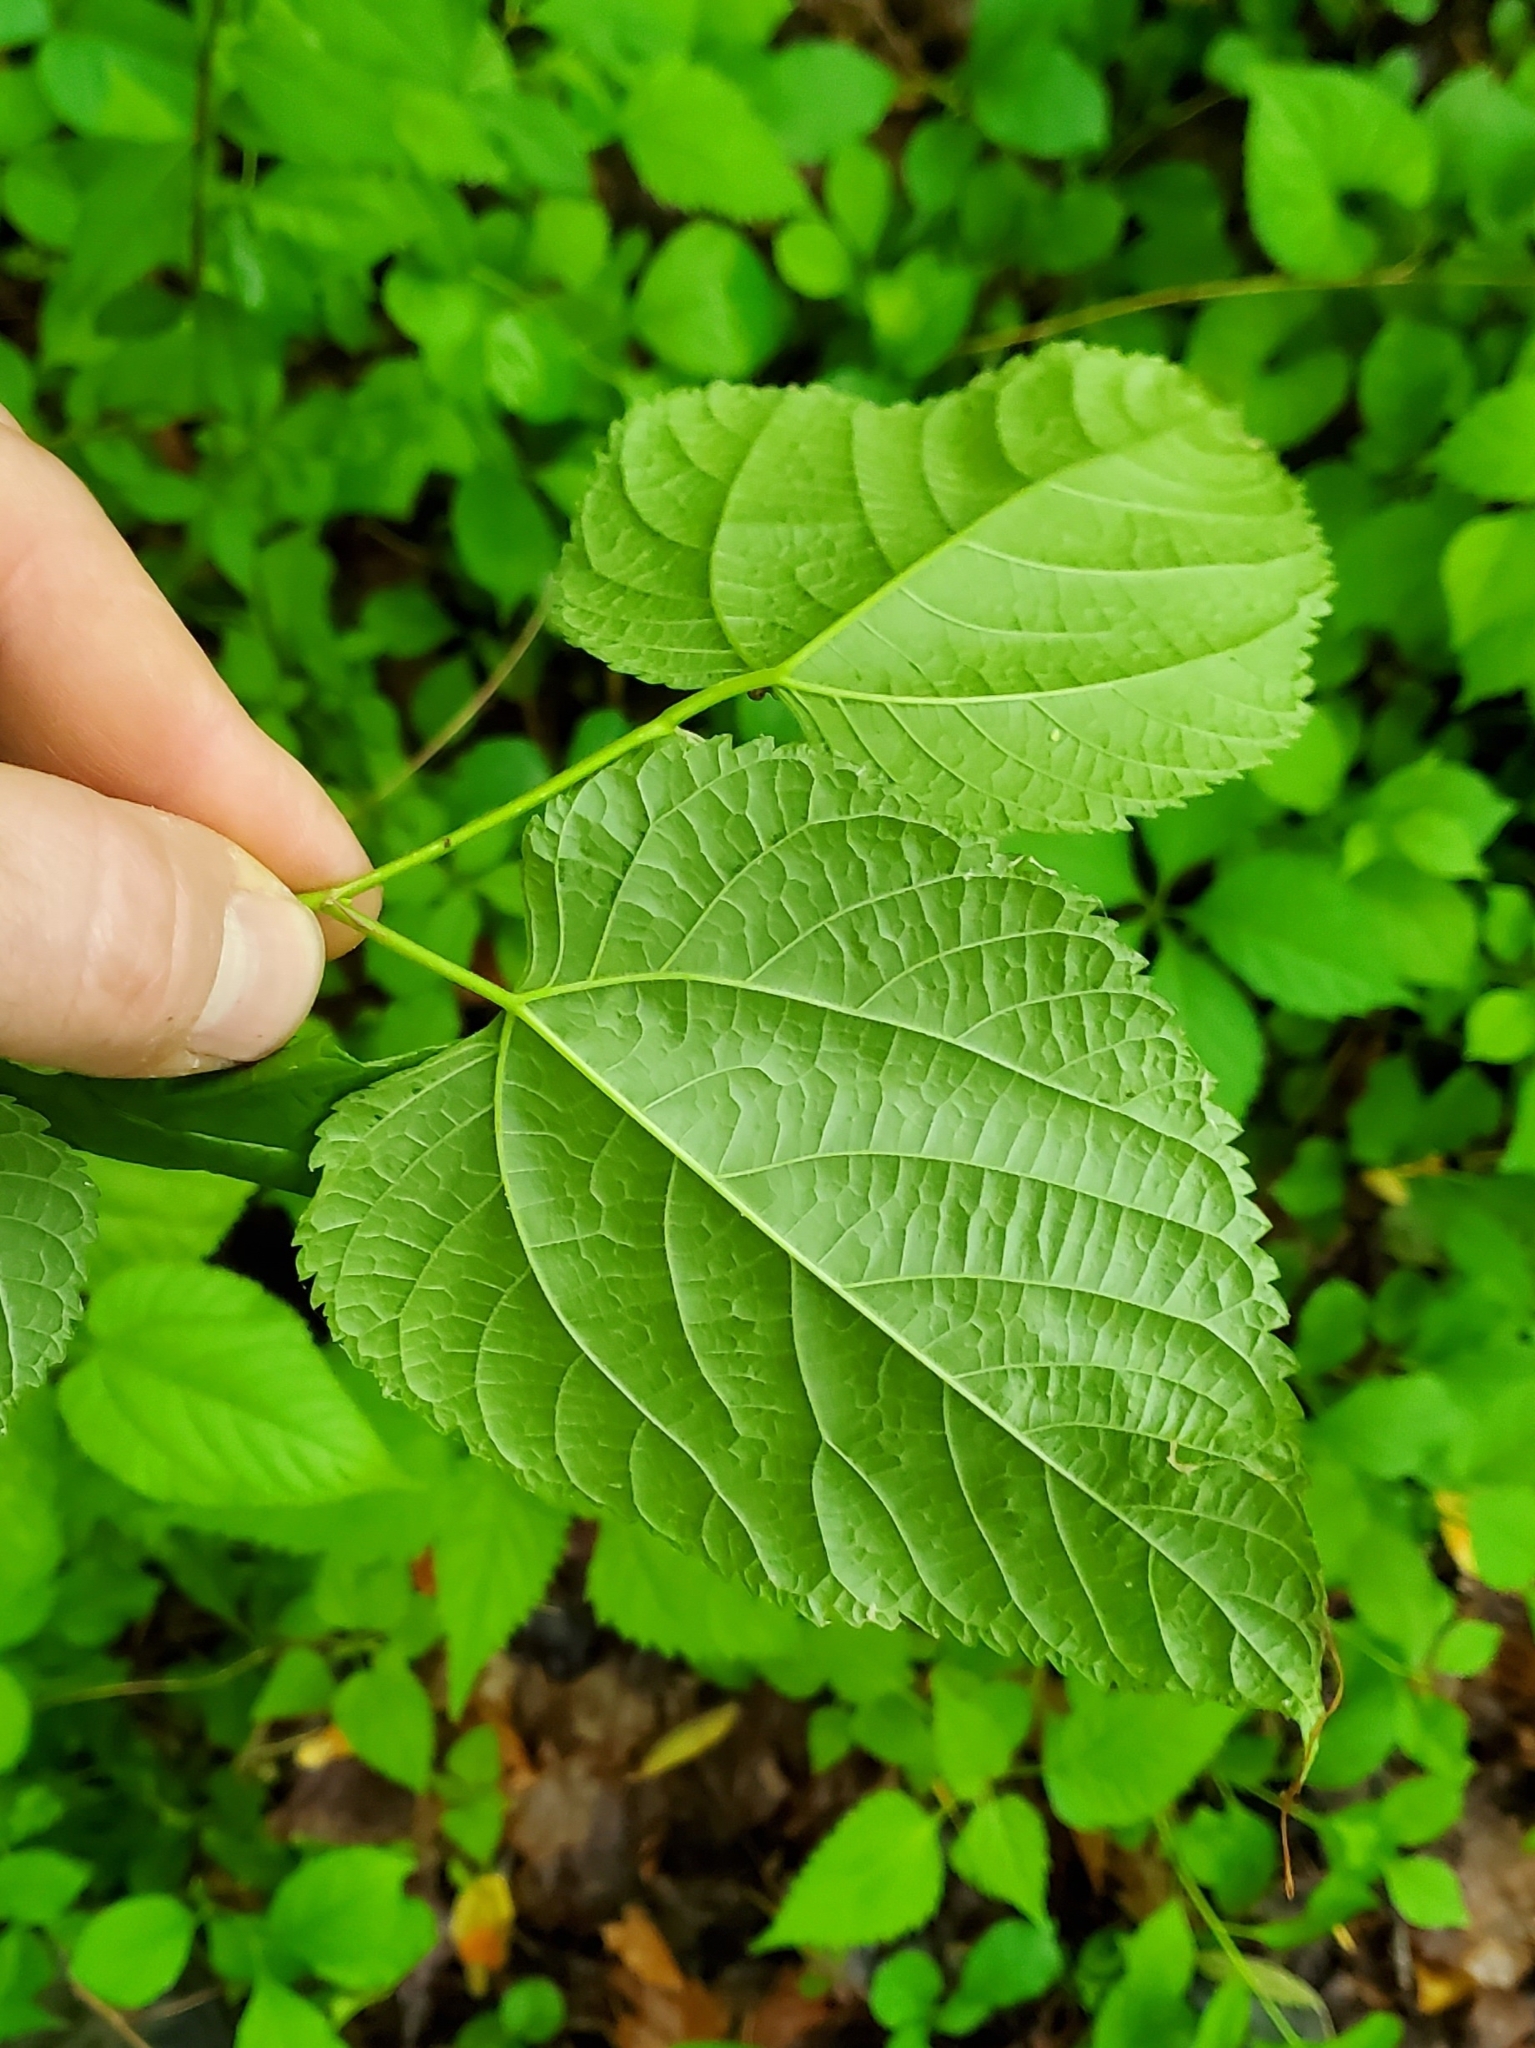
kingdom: Plantae
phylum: Tracheophyta
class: Magnoliopsida
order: Rosales
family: Moraceae
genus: Morus
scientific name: Morus rubra
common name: Red mulberry
